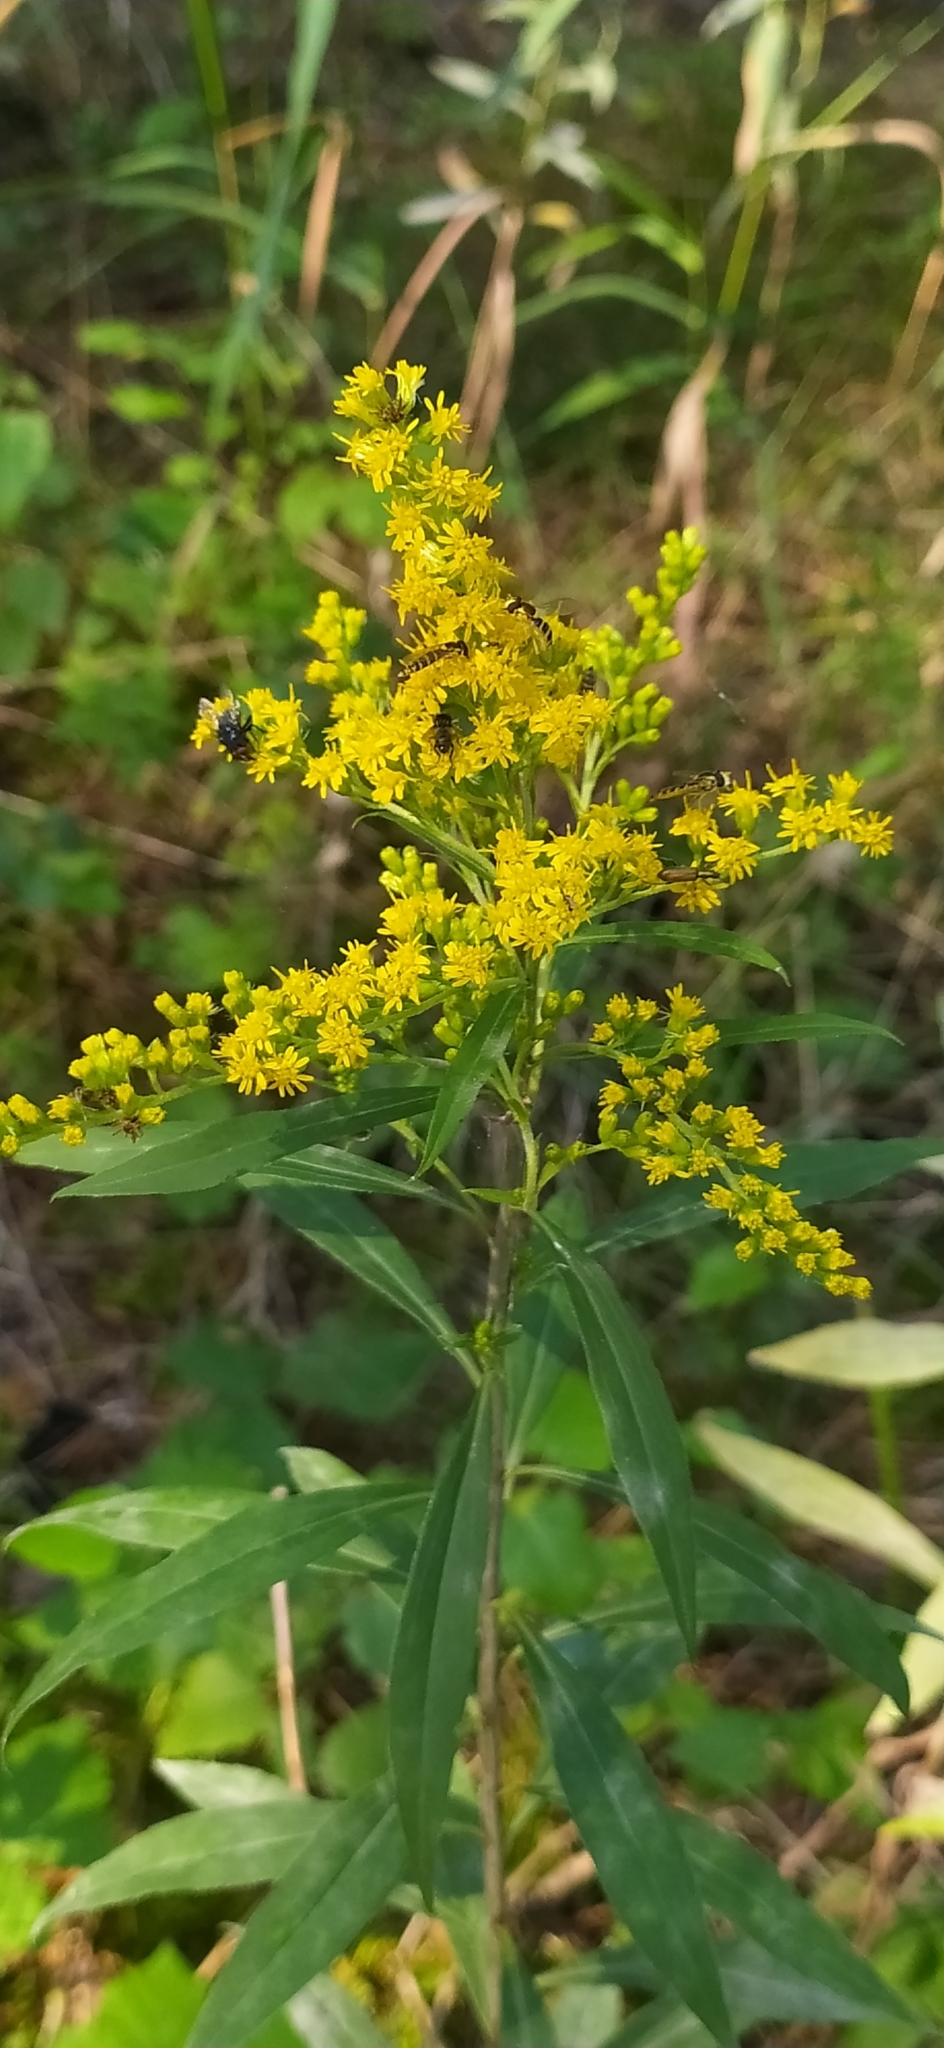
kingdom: Plantae
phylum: Tracheophyta
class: Magnoliopsida
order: Asterales
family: Asteraceae
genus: Solidago
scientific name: Solidago gigantea
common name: Giant goldenrod
